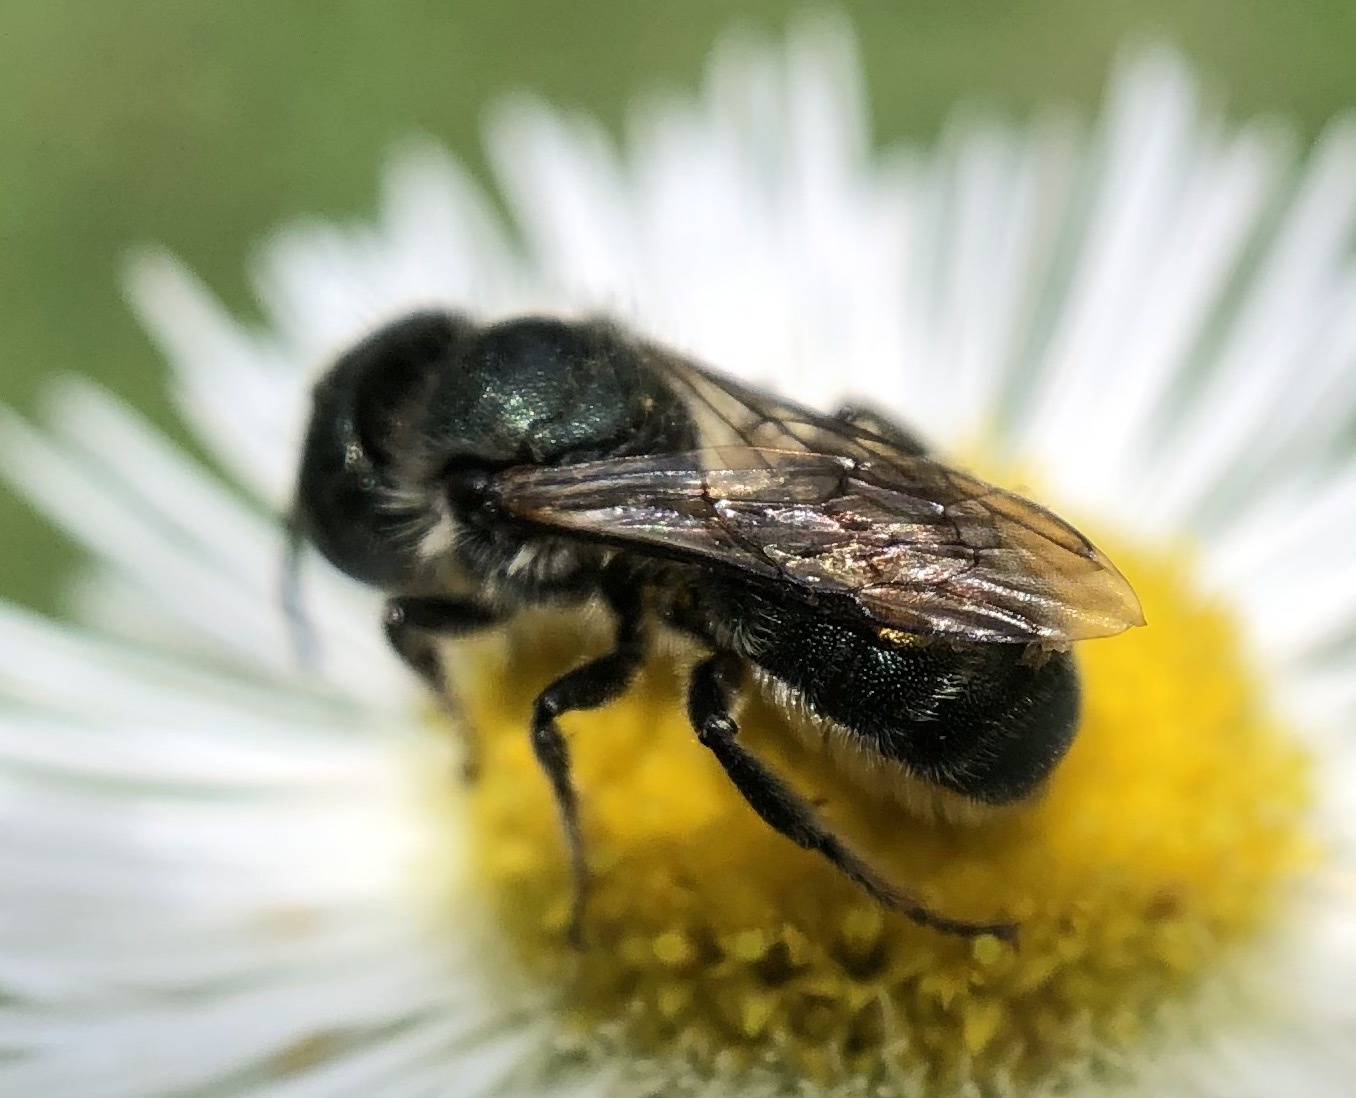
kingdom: Animalia
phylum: Arthropoda
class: Insecta
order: Hymenoptera
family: Megachilidae
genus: Osmia
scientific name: Osmia georgica
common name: Georgia mason
